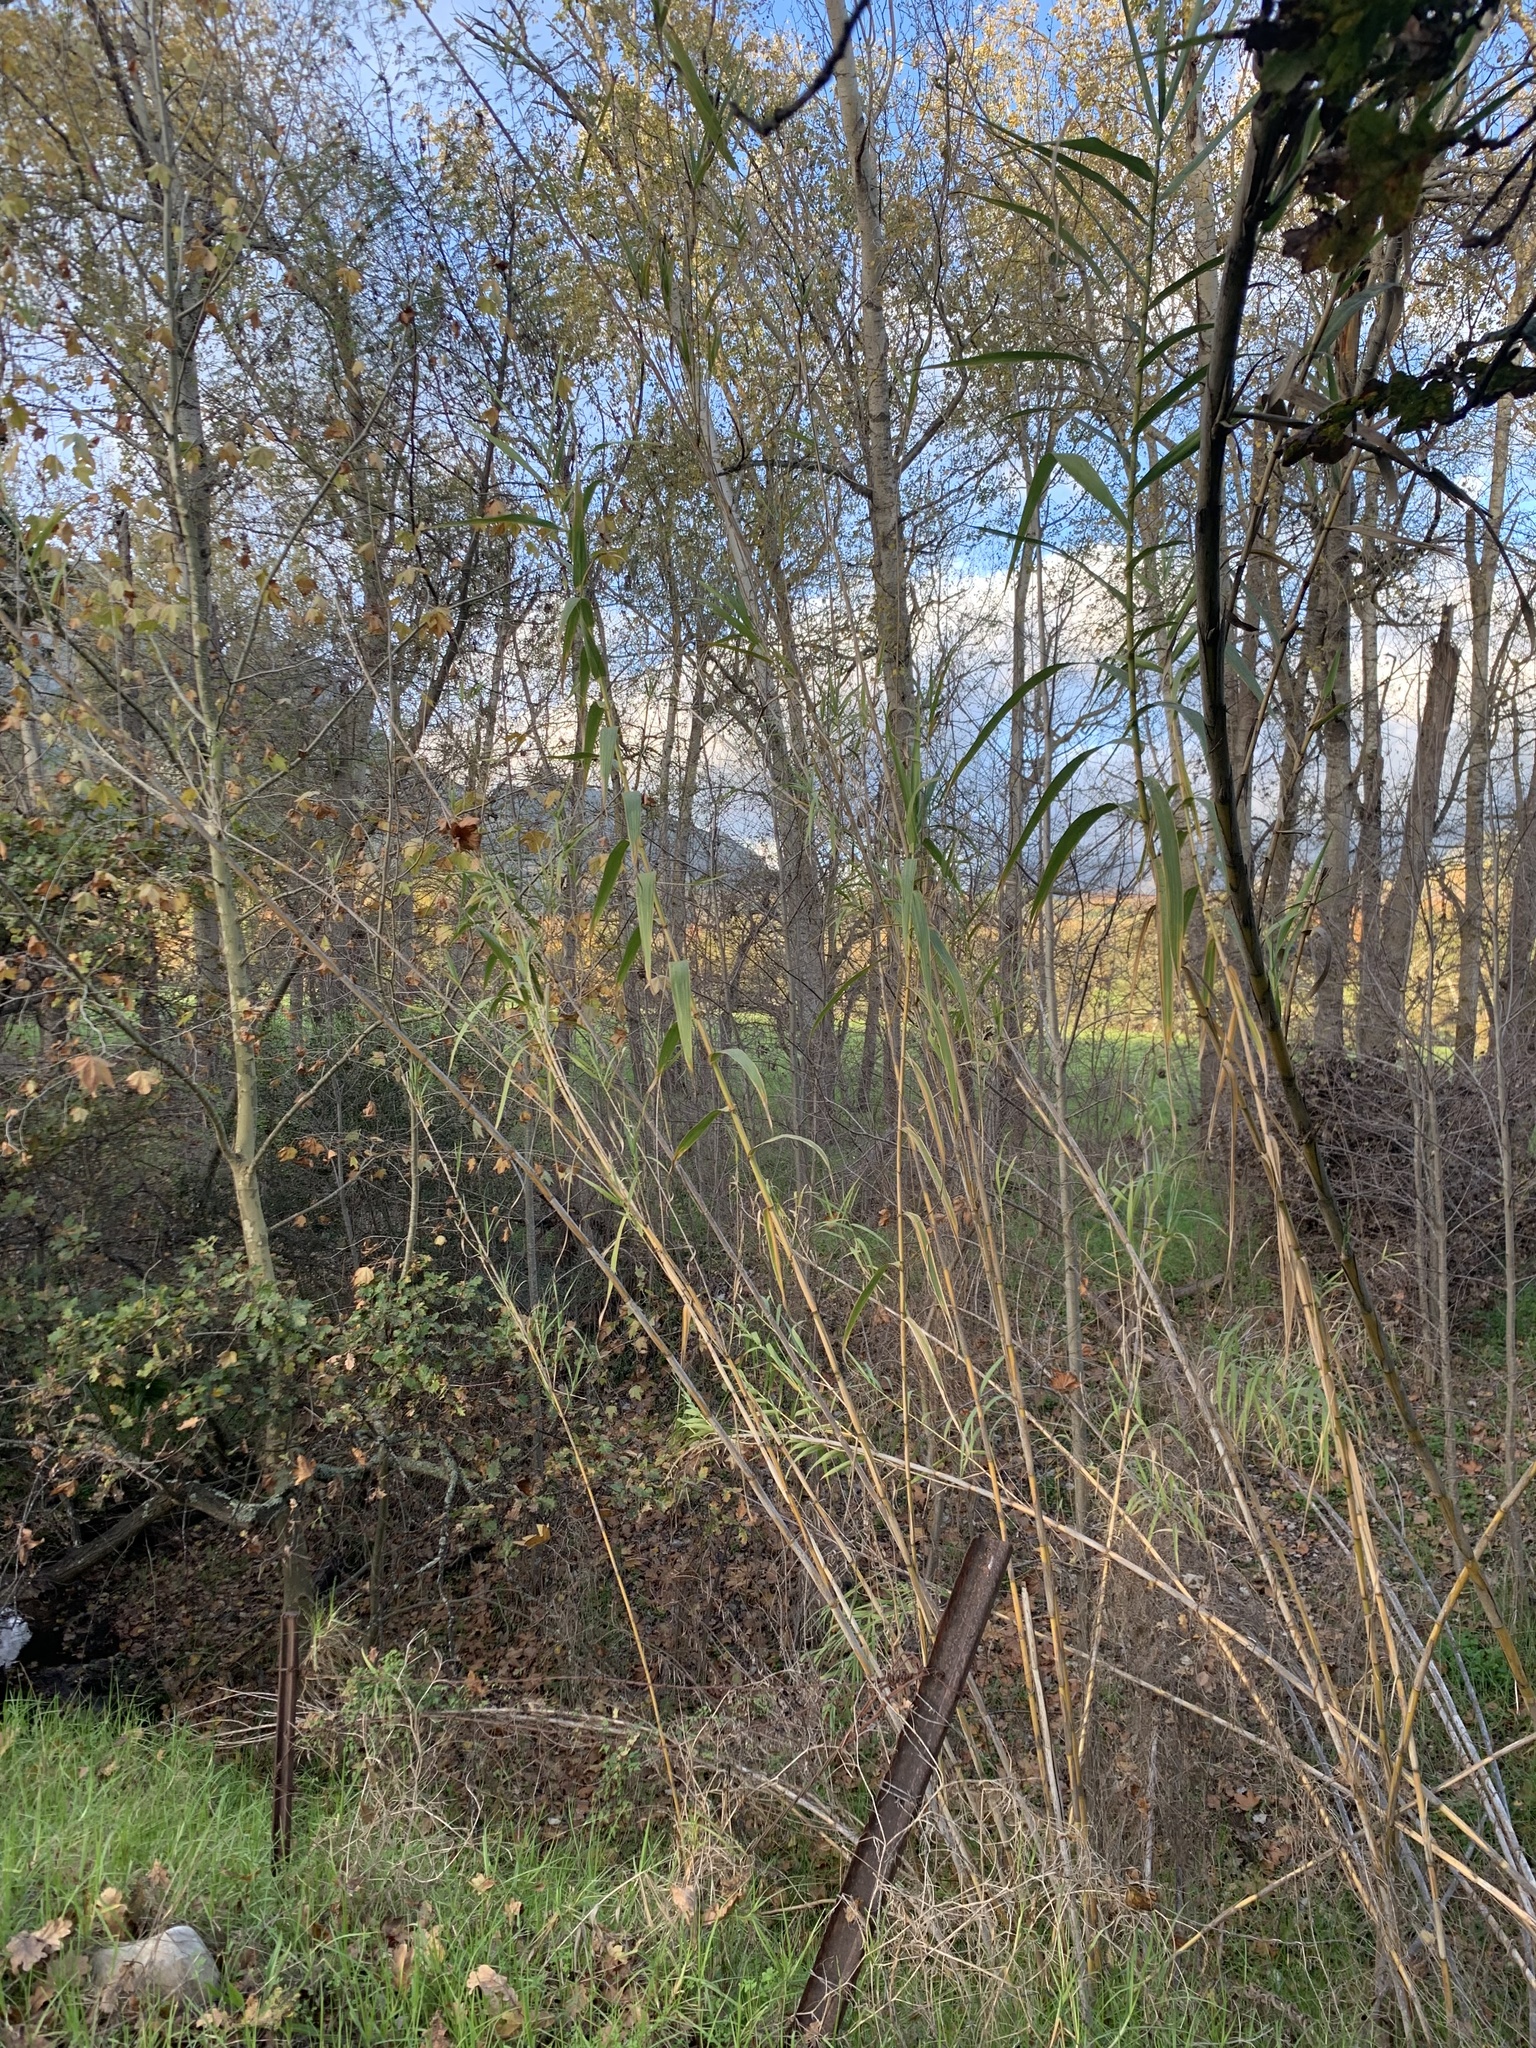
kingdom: Plantae
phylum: Tracheophyta
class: Liliopsida
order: Poales
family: Poaceae
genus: Arundo
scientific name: Arundo donax
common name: Giant reed
